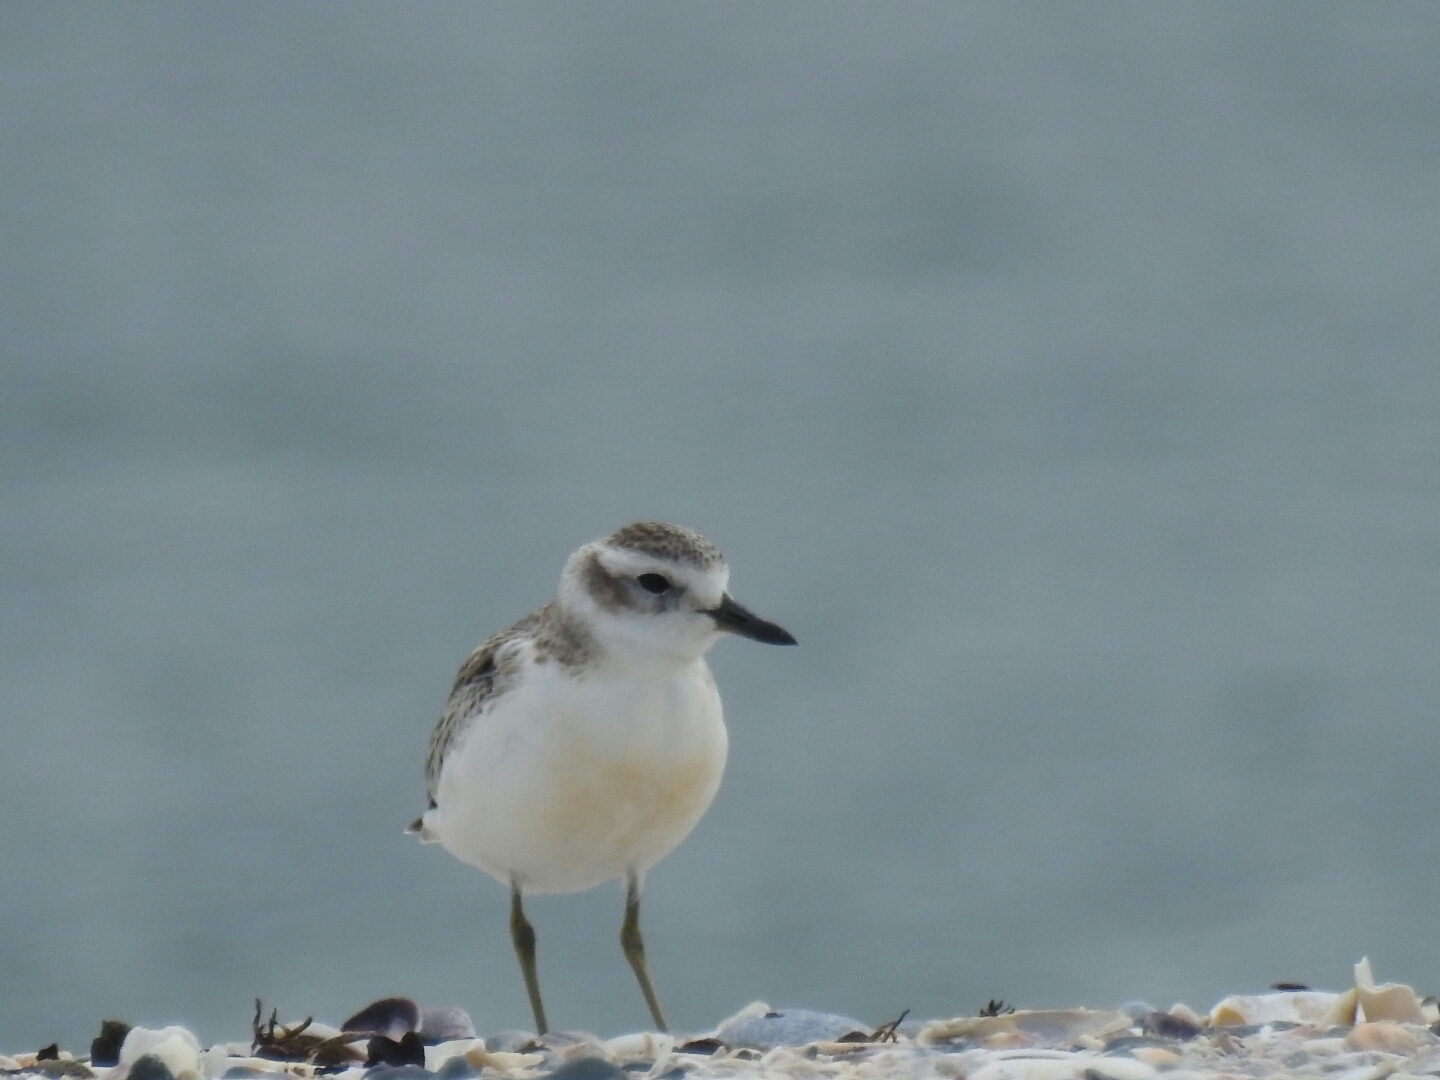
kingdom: Animalia
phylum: Chordata
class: Aves
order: Charadriiformes
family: Charadriidae
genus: Anarhynchus
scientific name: Anarhynchus
